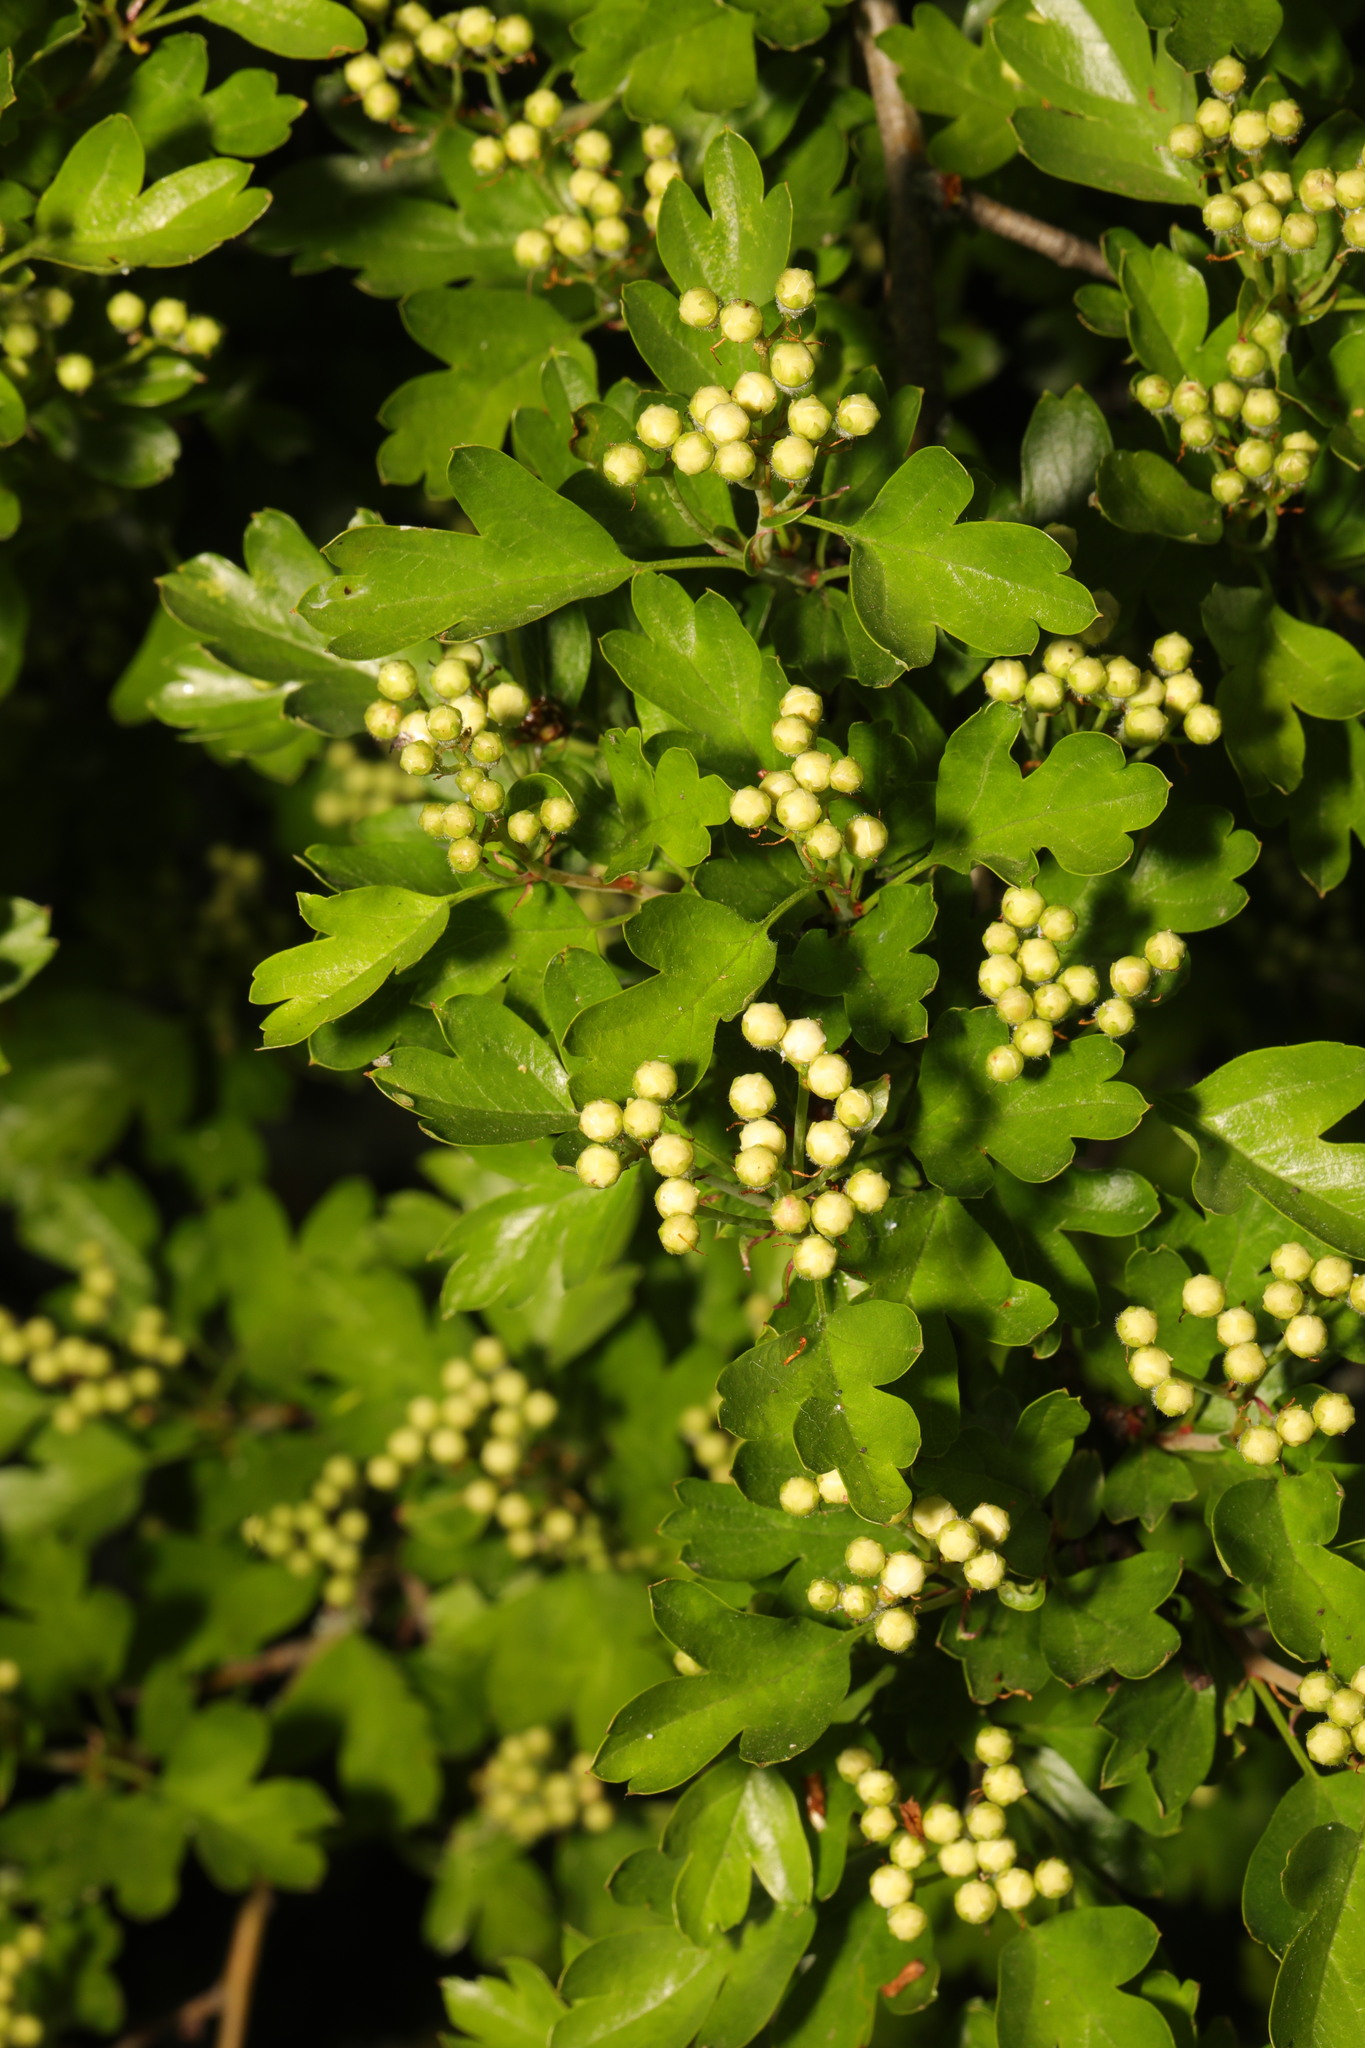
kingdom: Plantae
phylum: Tracheophyta
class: Magnoliopsida
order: Rosales
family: Rosaceae
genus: Crataegus
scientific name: Crataegus monogyna
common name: Hawthorn
